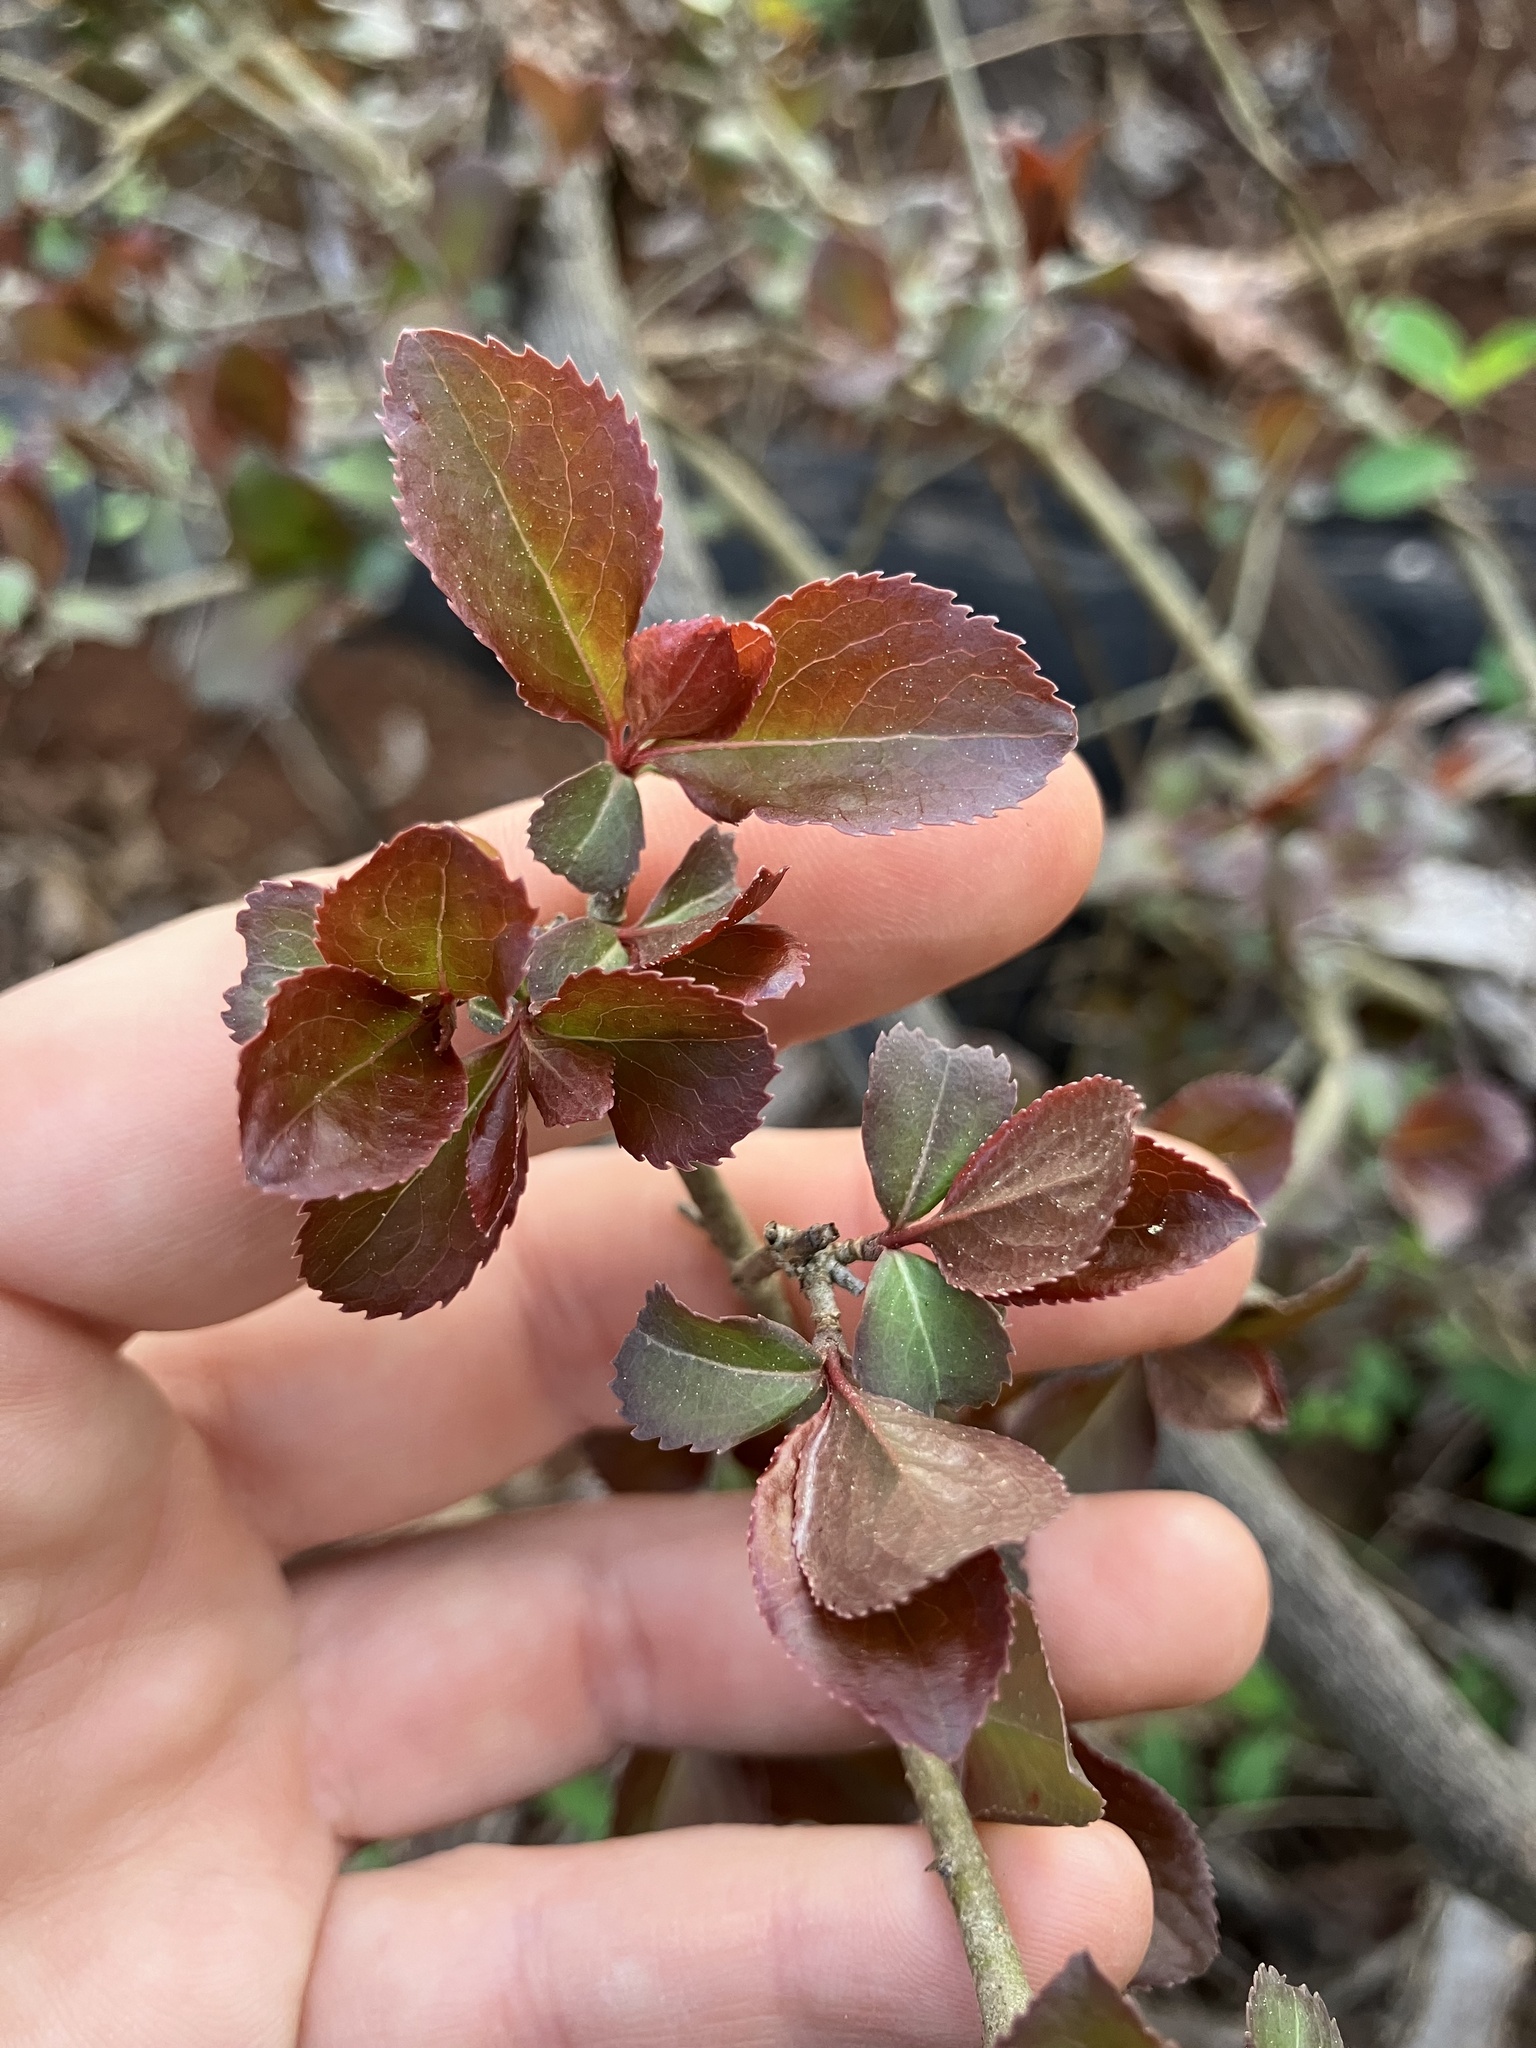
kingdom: Plantae
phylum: Tracheophyta
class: Magnoliopsida
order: Dipsacales
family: Viburnaceae
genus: Viburnum
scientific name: Viburnum prunifolium
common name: Black haw
